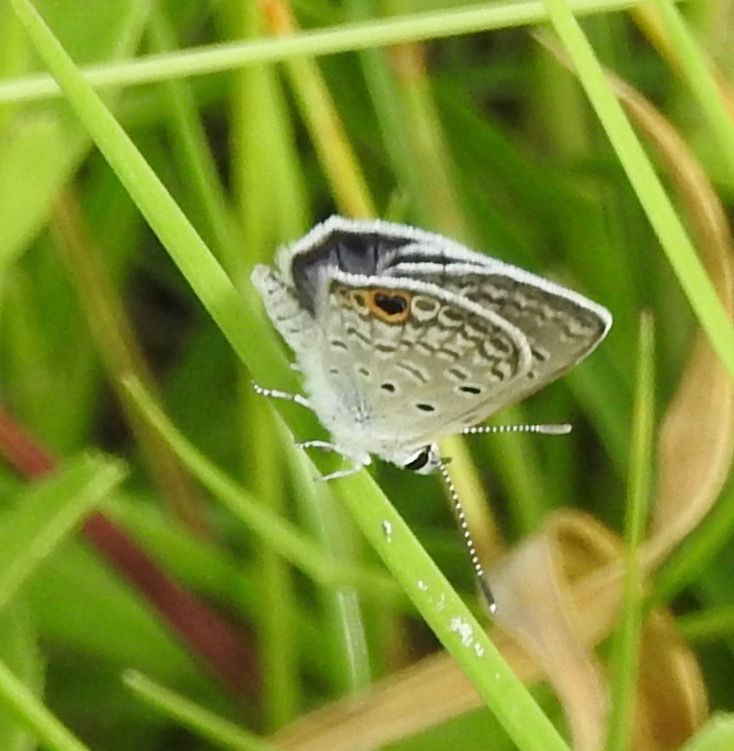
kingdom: Animalia
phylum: Arthropoda
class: Insecta
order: Lepidoptera
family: Lycaenidae
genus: Hemiargus
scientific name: Hemiargus ceraunus
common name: Ceraunus blue
